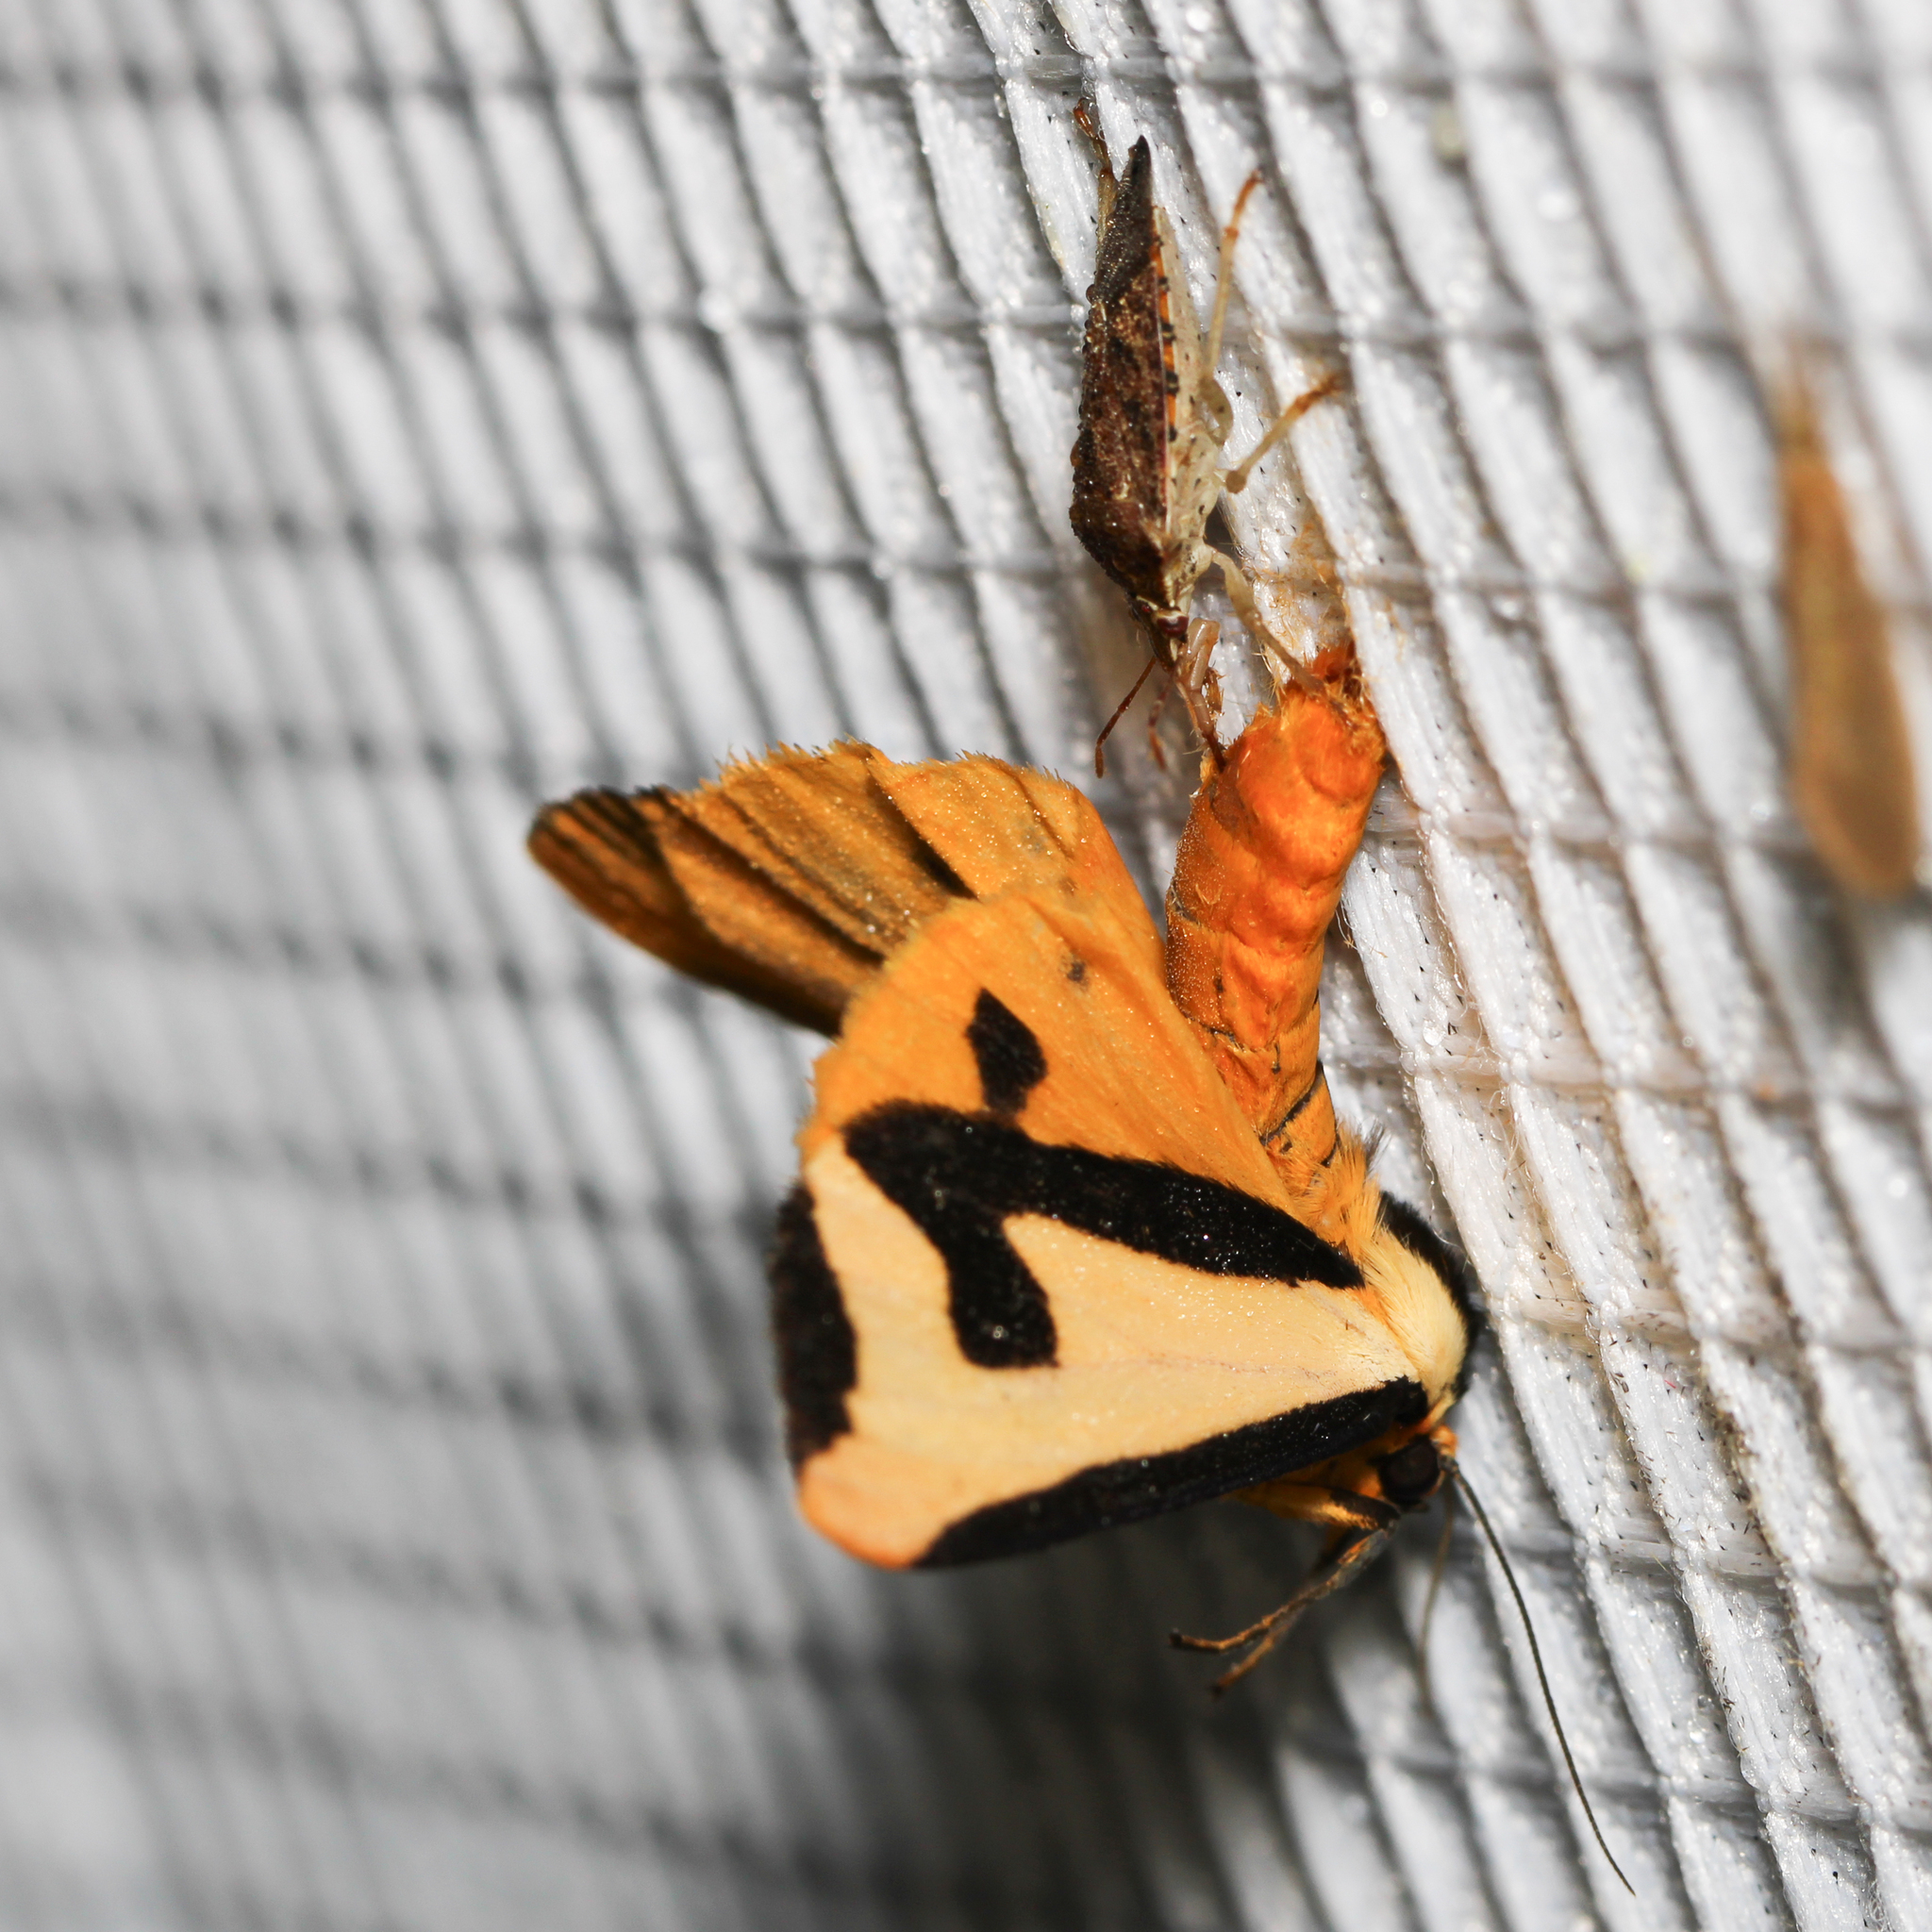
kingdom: Animalia
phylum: Arthropoda
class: Insecta
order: Lepidoptera
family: Erebidae
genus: Haploa
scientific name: Haploa clymene
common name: Clymene moth
